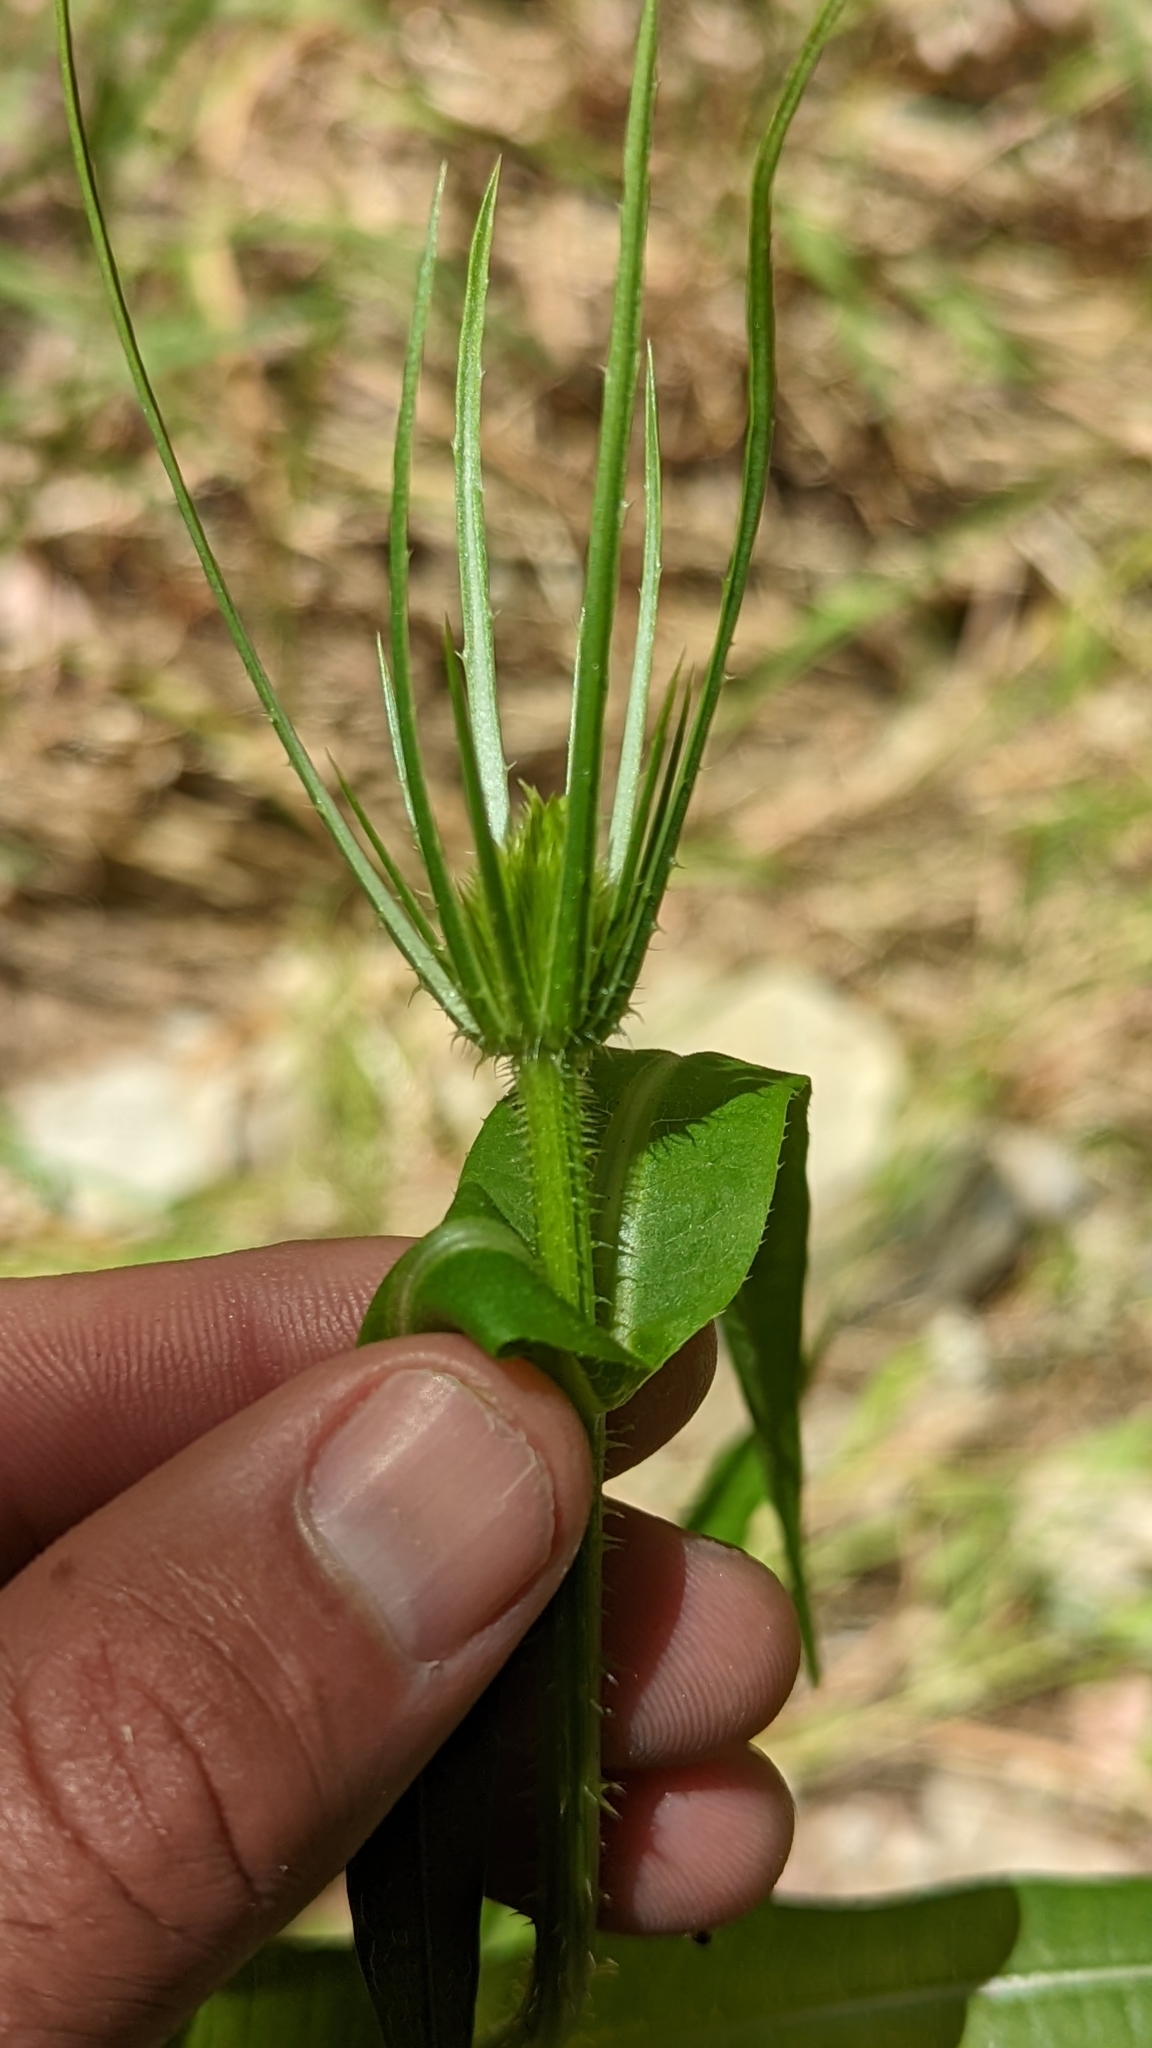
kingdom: Plantae
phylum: Tracheophyta
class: Magnoliopsida
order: Dipsacales
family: Caprifoliaceae
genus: Dipsacus
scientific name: Dipsacus fullonum
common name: Teasel
